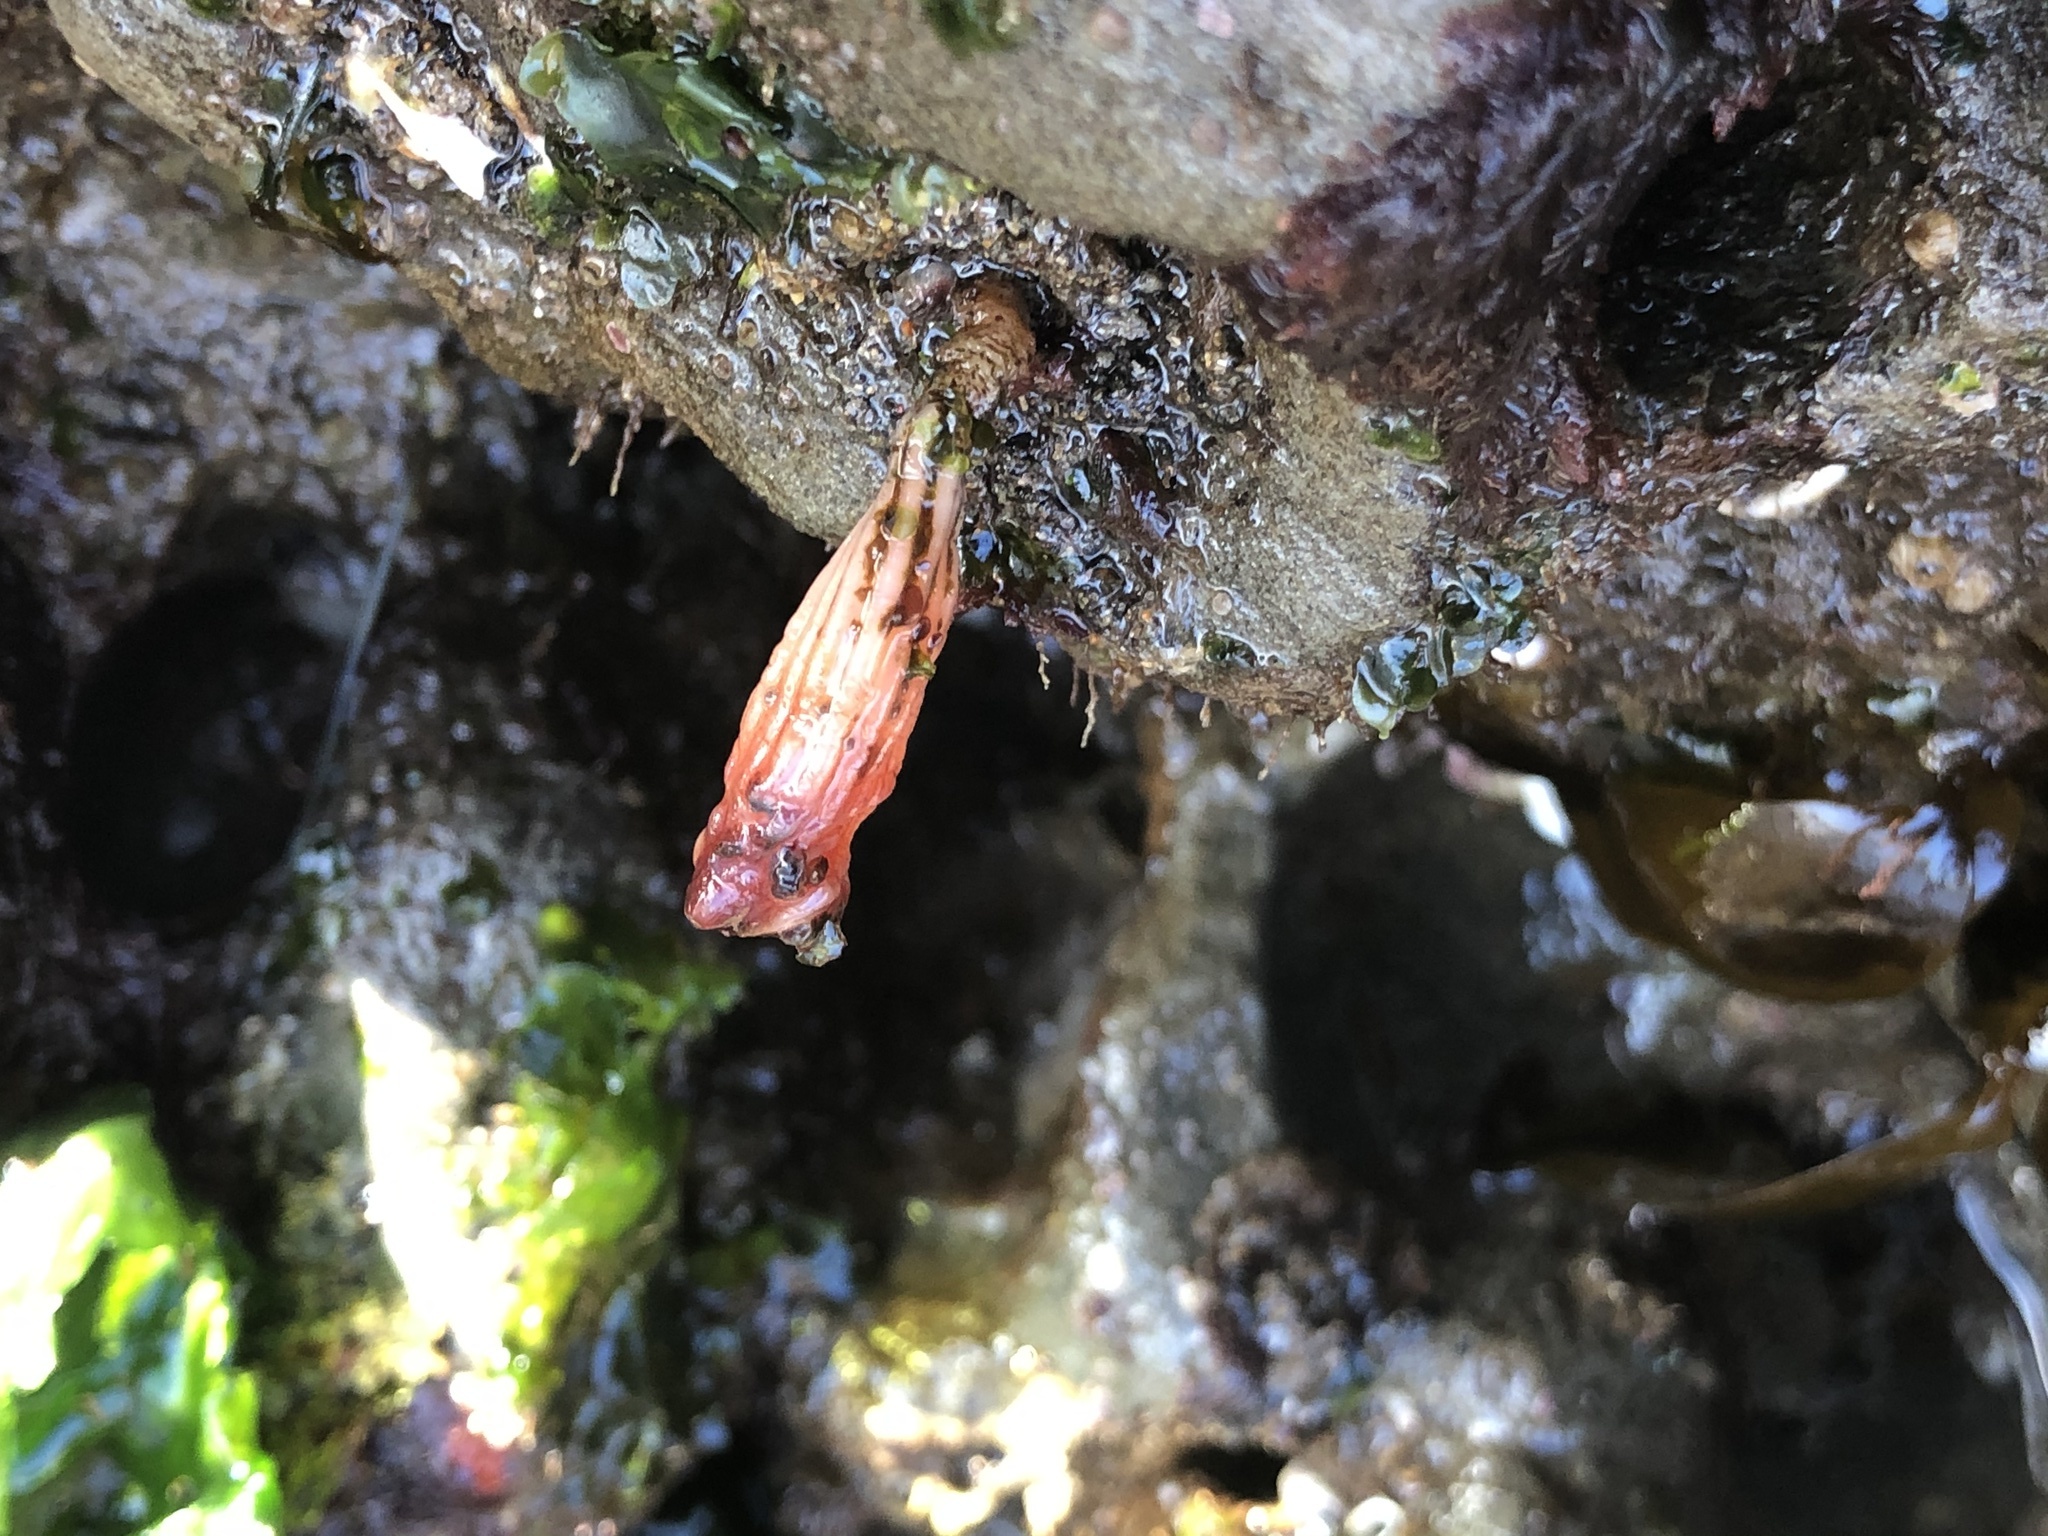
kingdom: Animalia
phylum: Chordata
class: Ascidiacea
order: Stolidobranchia
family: Styelidae
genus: Styela
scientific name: Styela montereyensis
